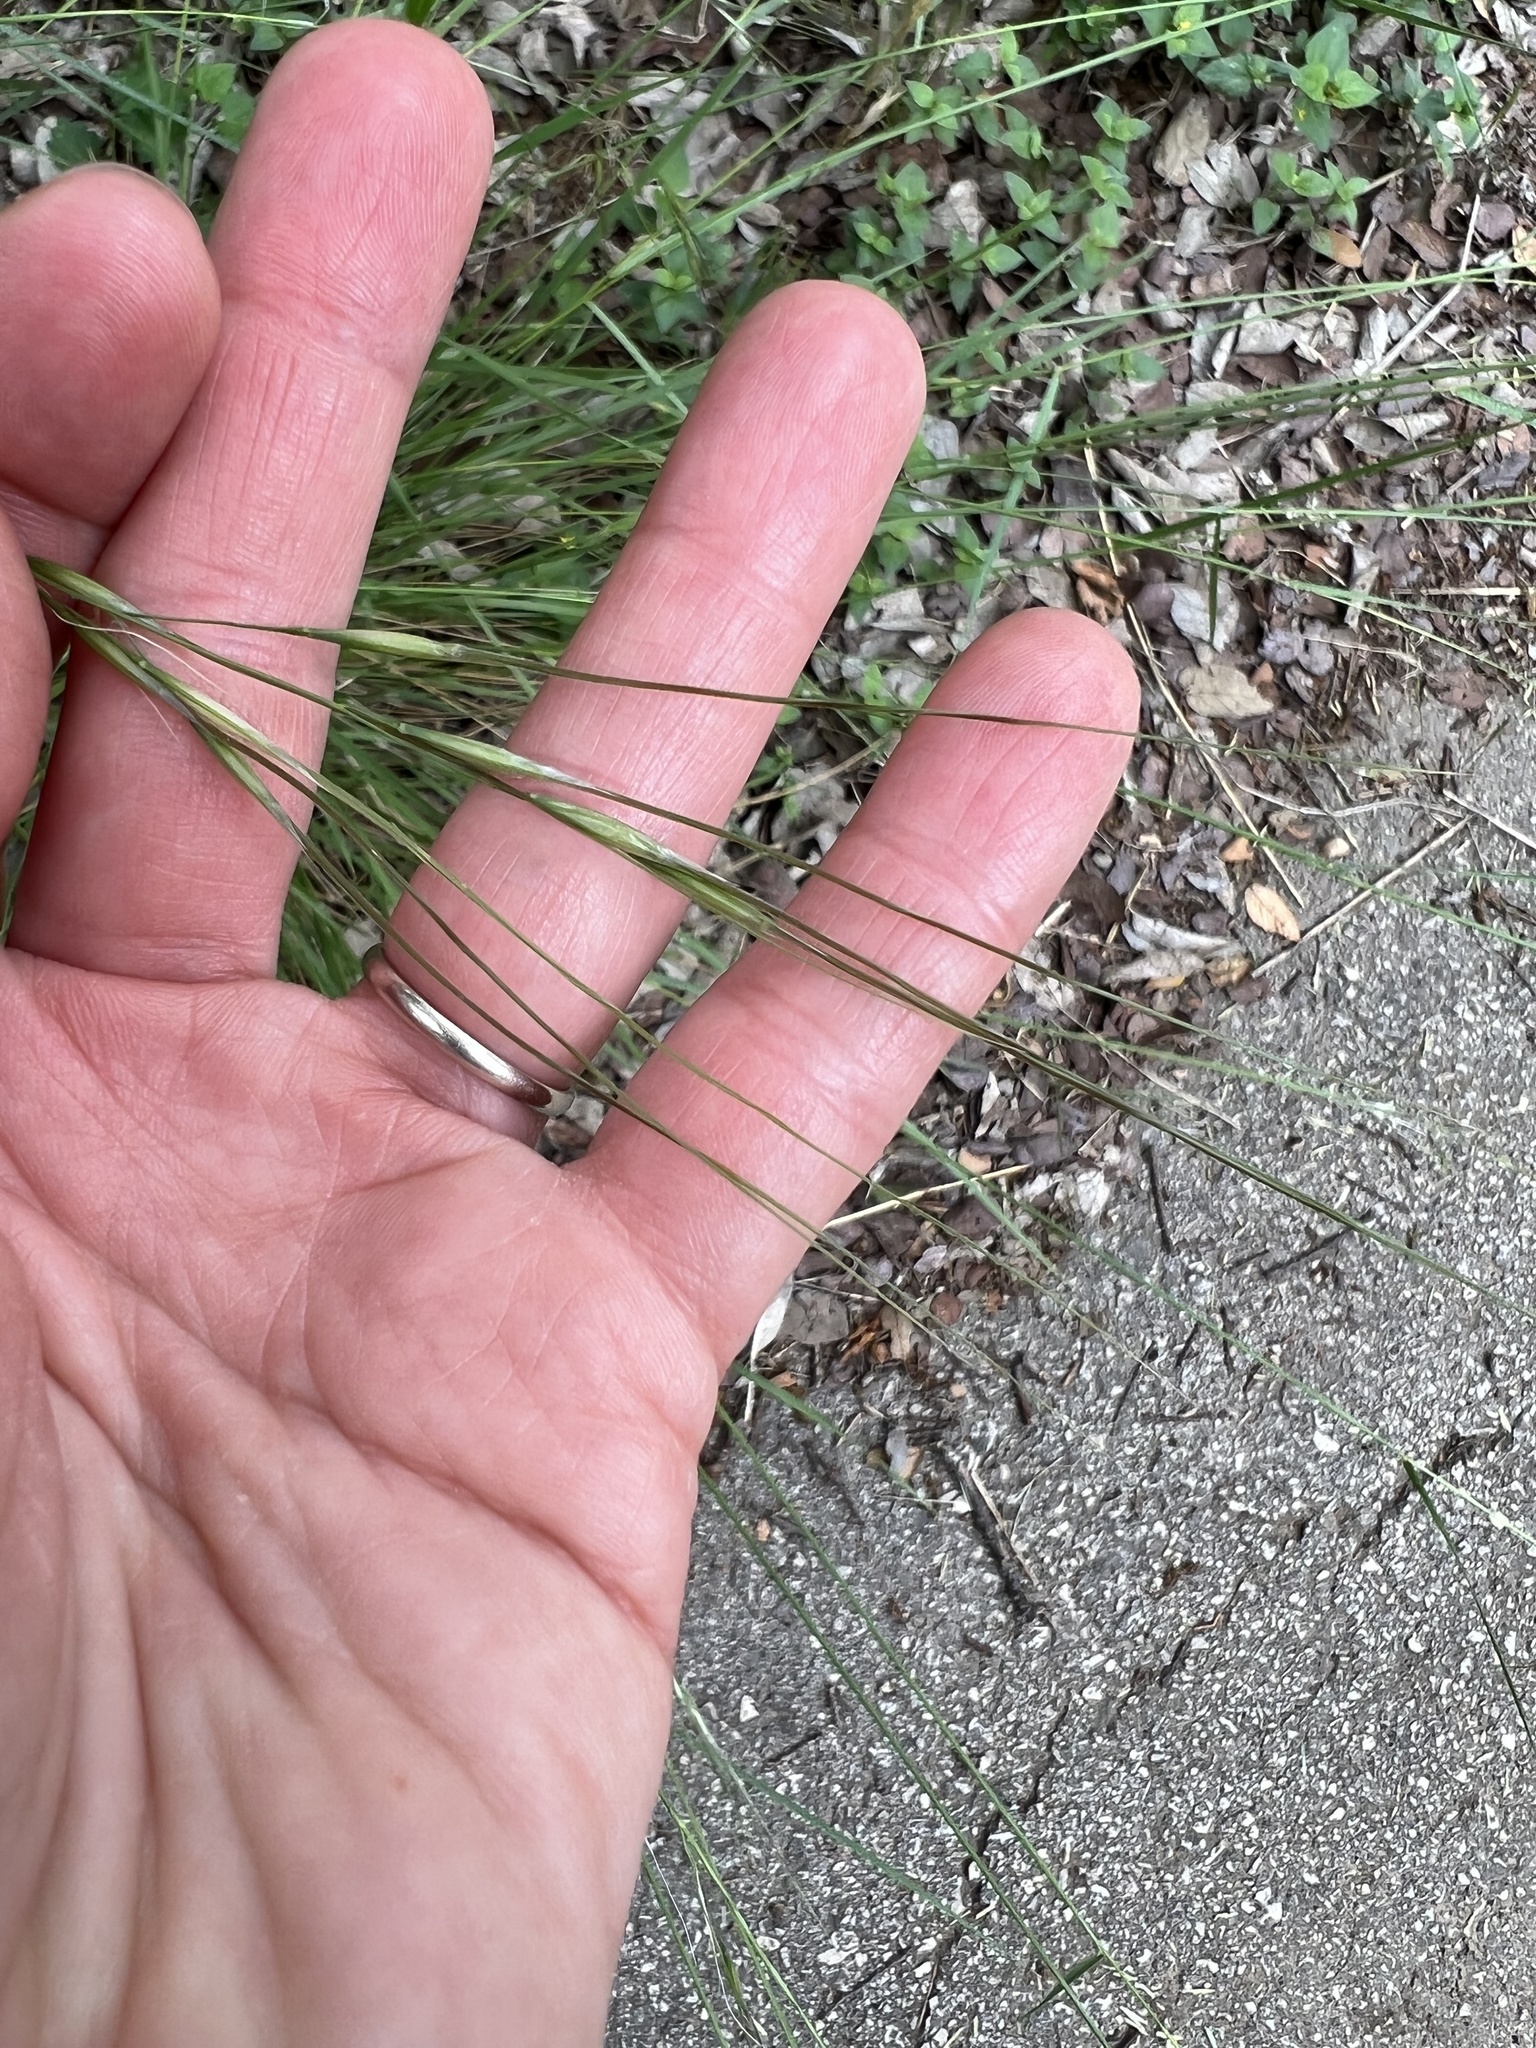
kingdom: Plantae
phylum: Tracheophyta
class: Liliopsida
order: Poales
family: Poaceae
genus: Nassella
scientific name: Nassella leucotricha
